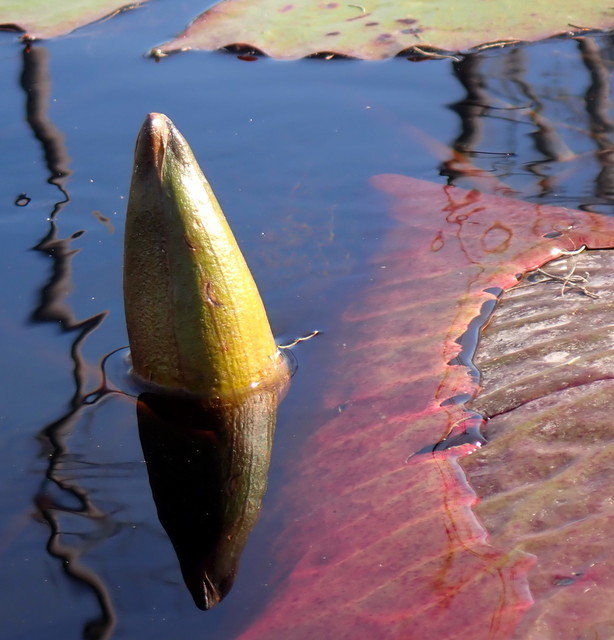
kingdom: Plantae
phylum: Tracheophyta
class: Magnoliopsida
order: Nymphaeales
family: Nymphaeaceae
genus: Nymphaea
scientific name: Nymphaea odorata
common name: Fragrant water-lily
